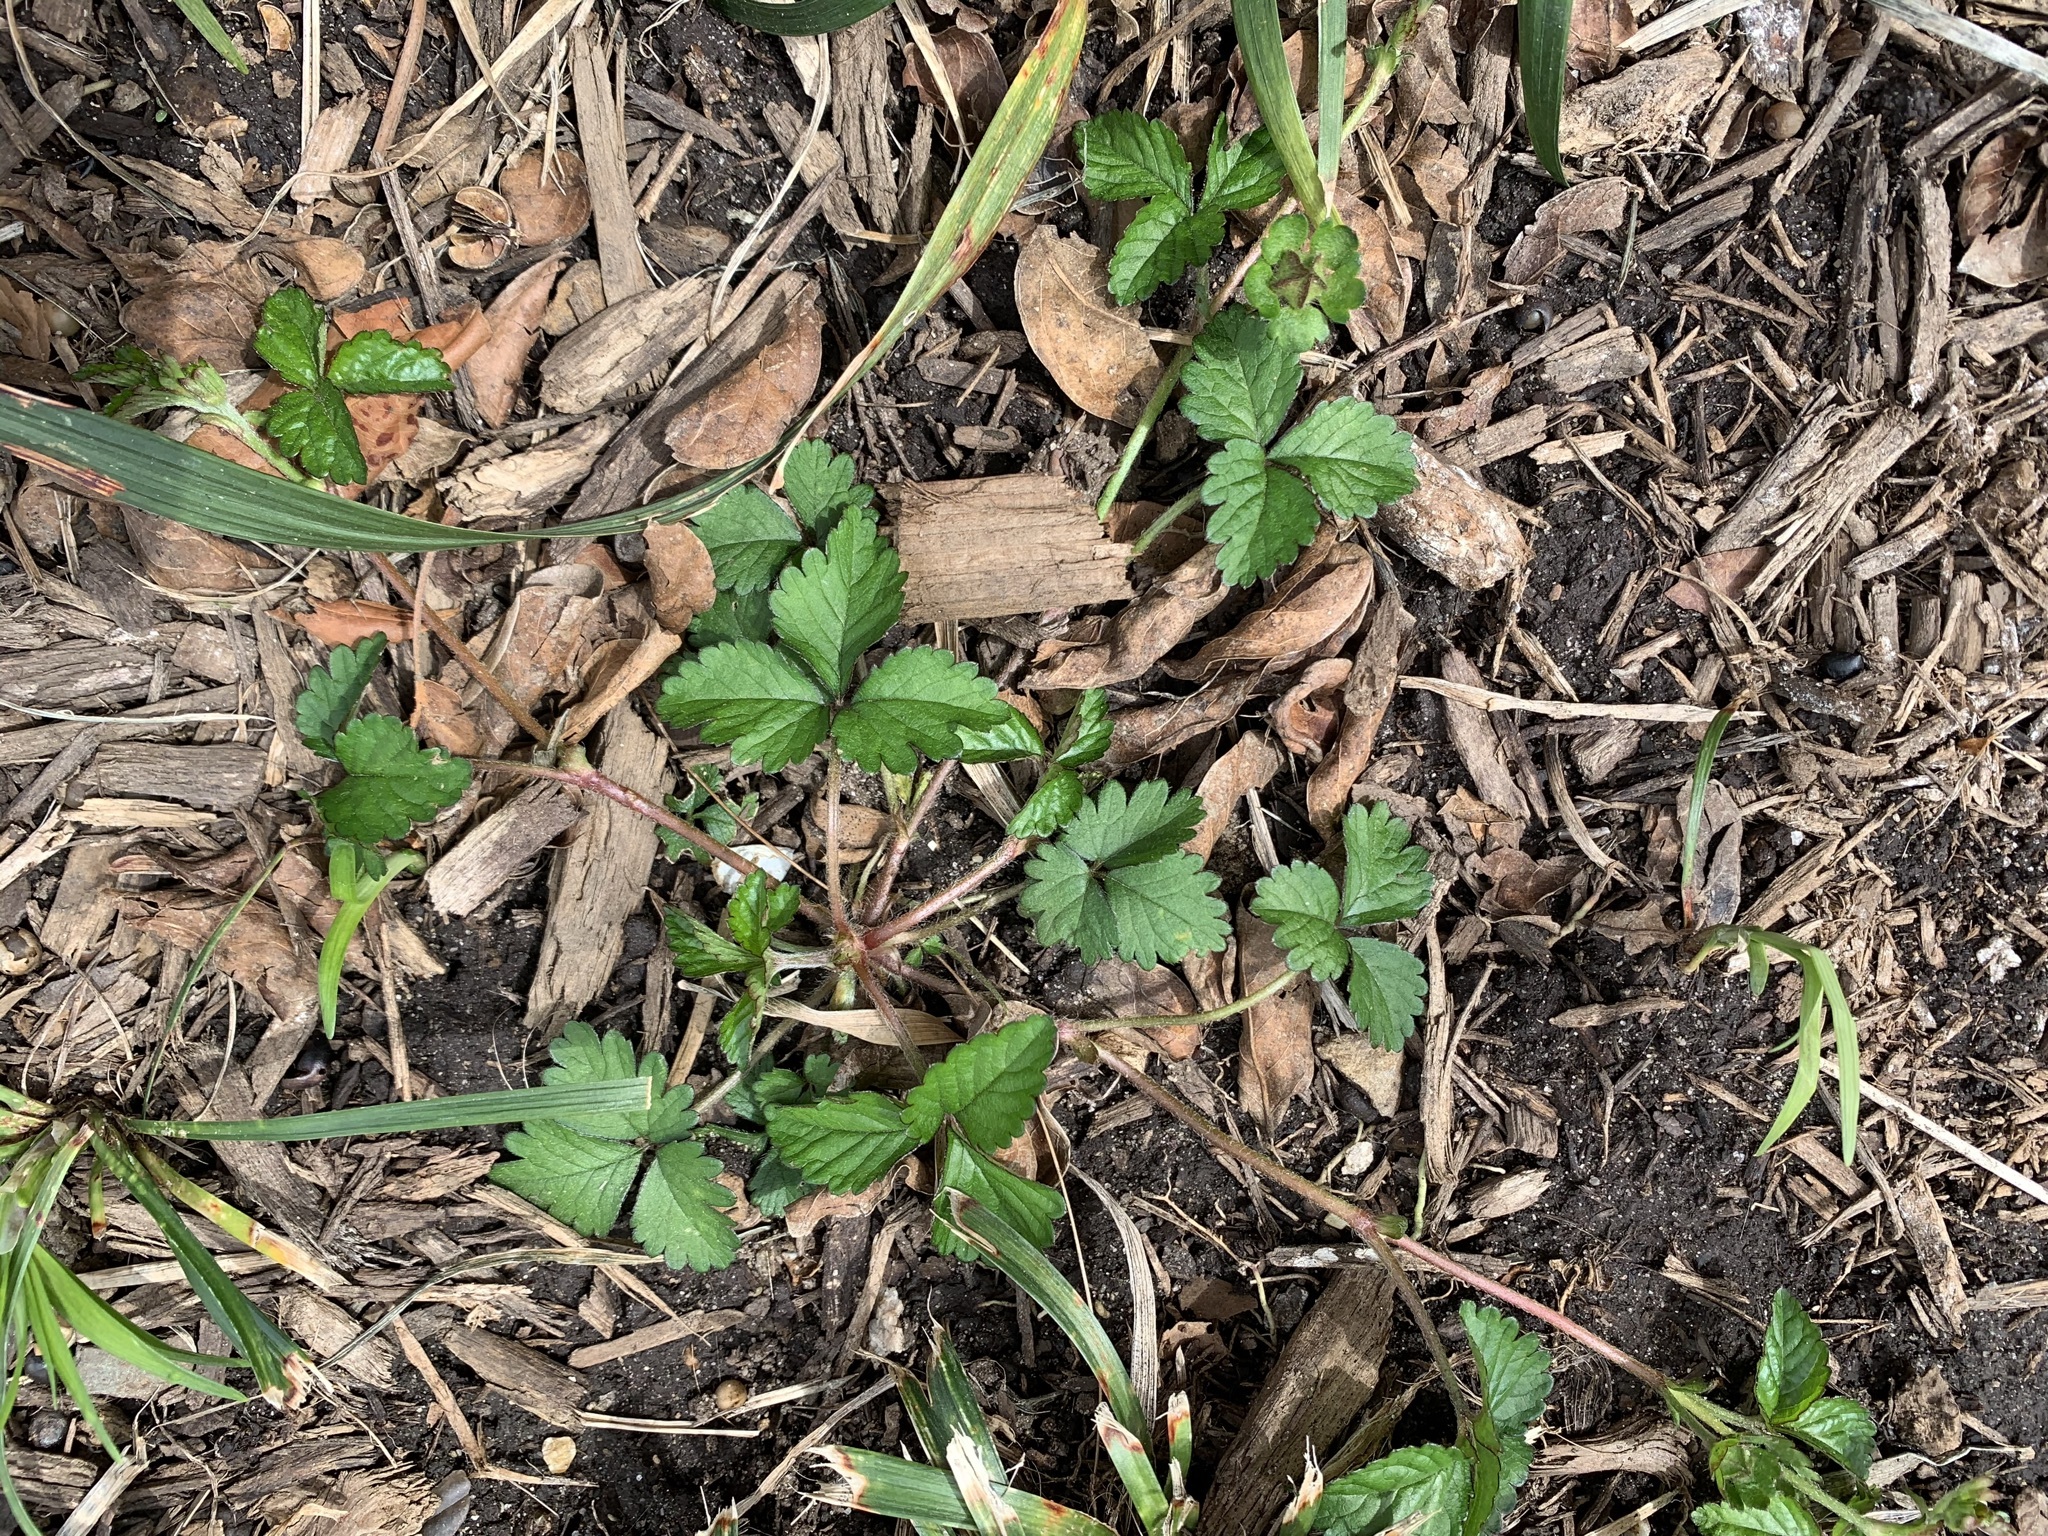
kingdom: Plantae
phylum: Tracheophyta
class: Magnoliopsida
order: Rosales
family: Rosaceae
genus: Potentilla
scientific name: Potentilla indica
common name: Yellow-flowered strawberry
